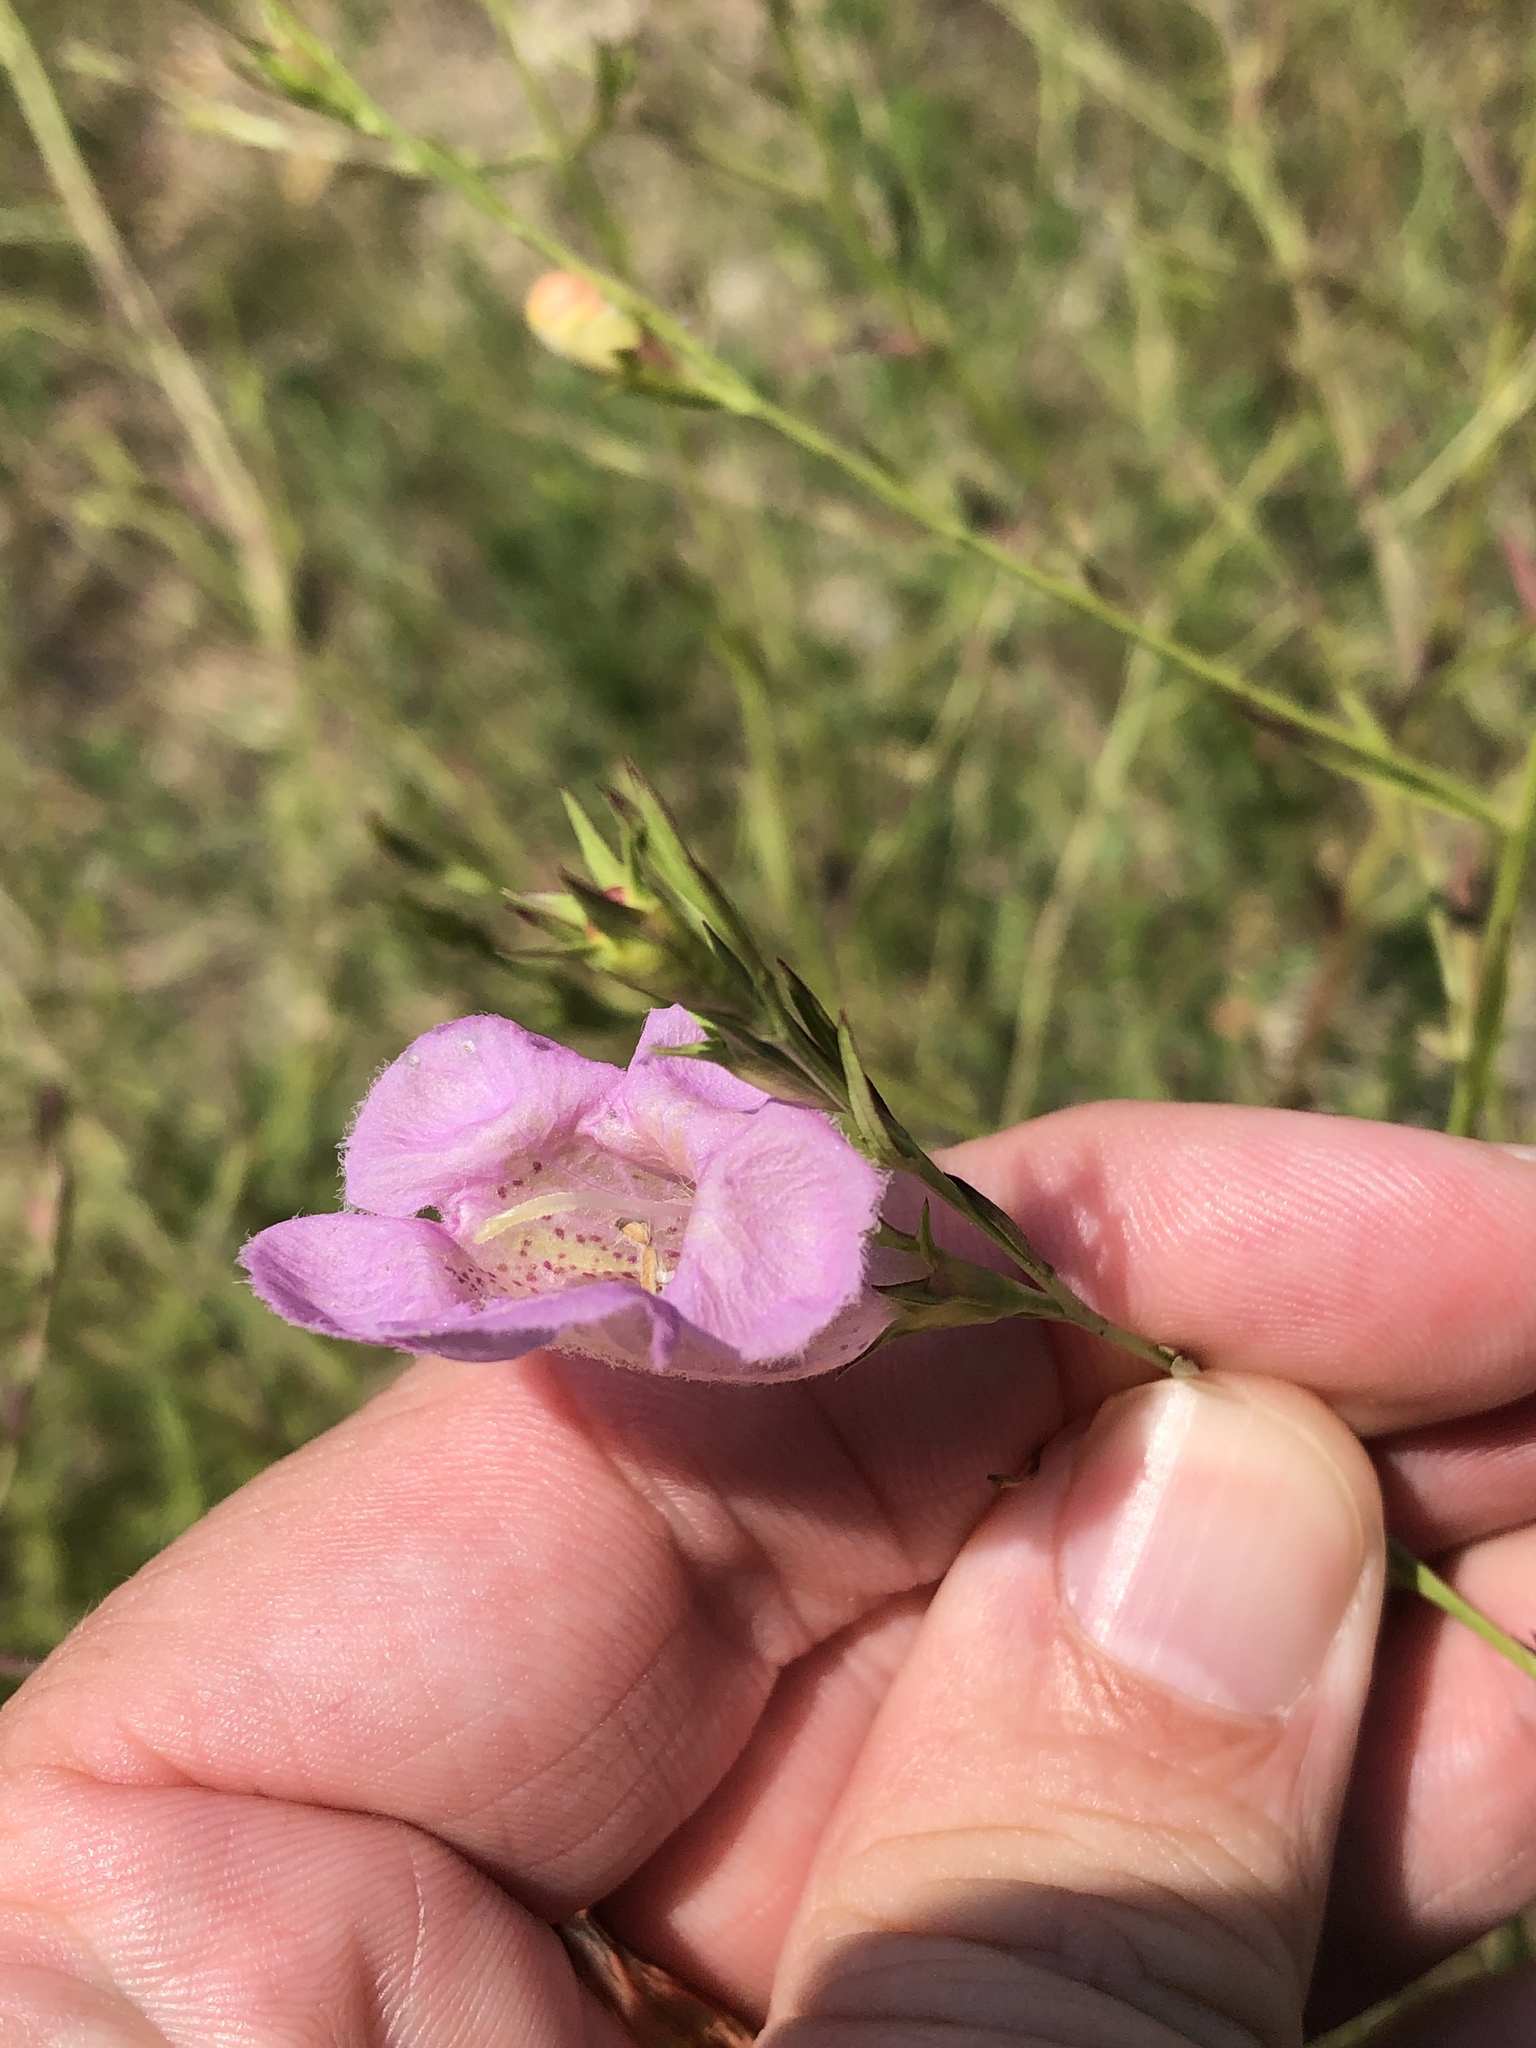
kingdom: Plantae
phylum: Tracheophyta
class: Magnoliopsida
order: Lamiales
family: Orobanchaceae
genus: Agalinis
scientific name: Agalinis heterophylla
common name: Prairie agalinis
